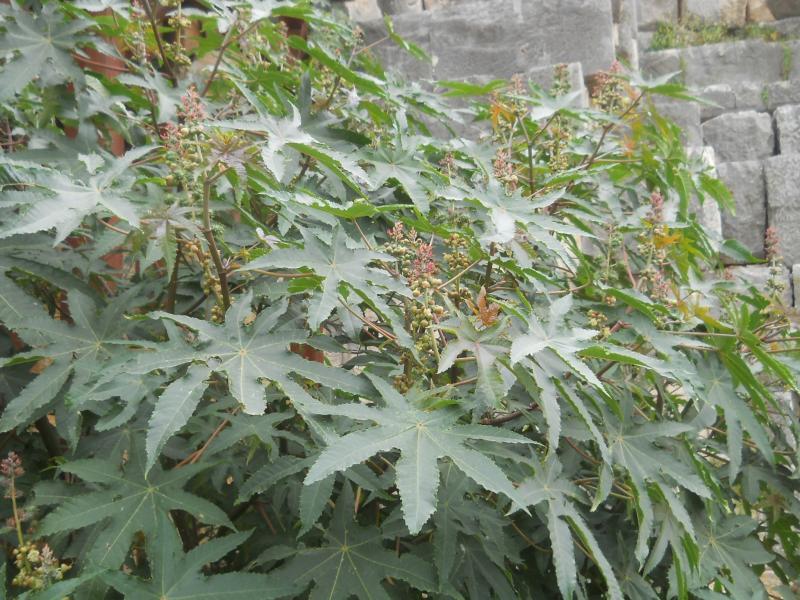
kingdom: Plantae
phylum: Tracheophyta
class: Magnoliopsida
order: Malpighiales
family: Euphorbiaceae
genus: Ricinus
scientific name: Ricinus communis
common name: Castor-oil-plant
